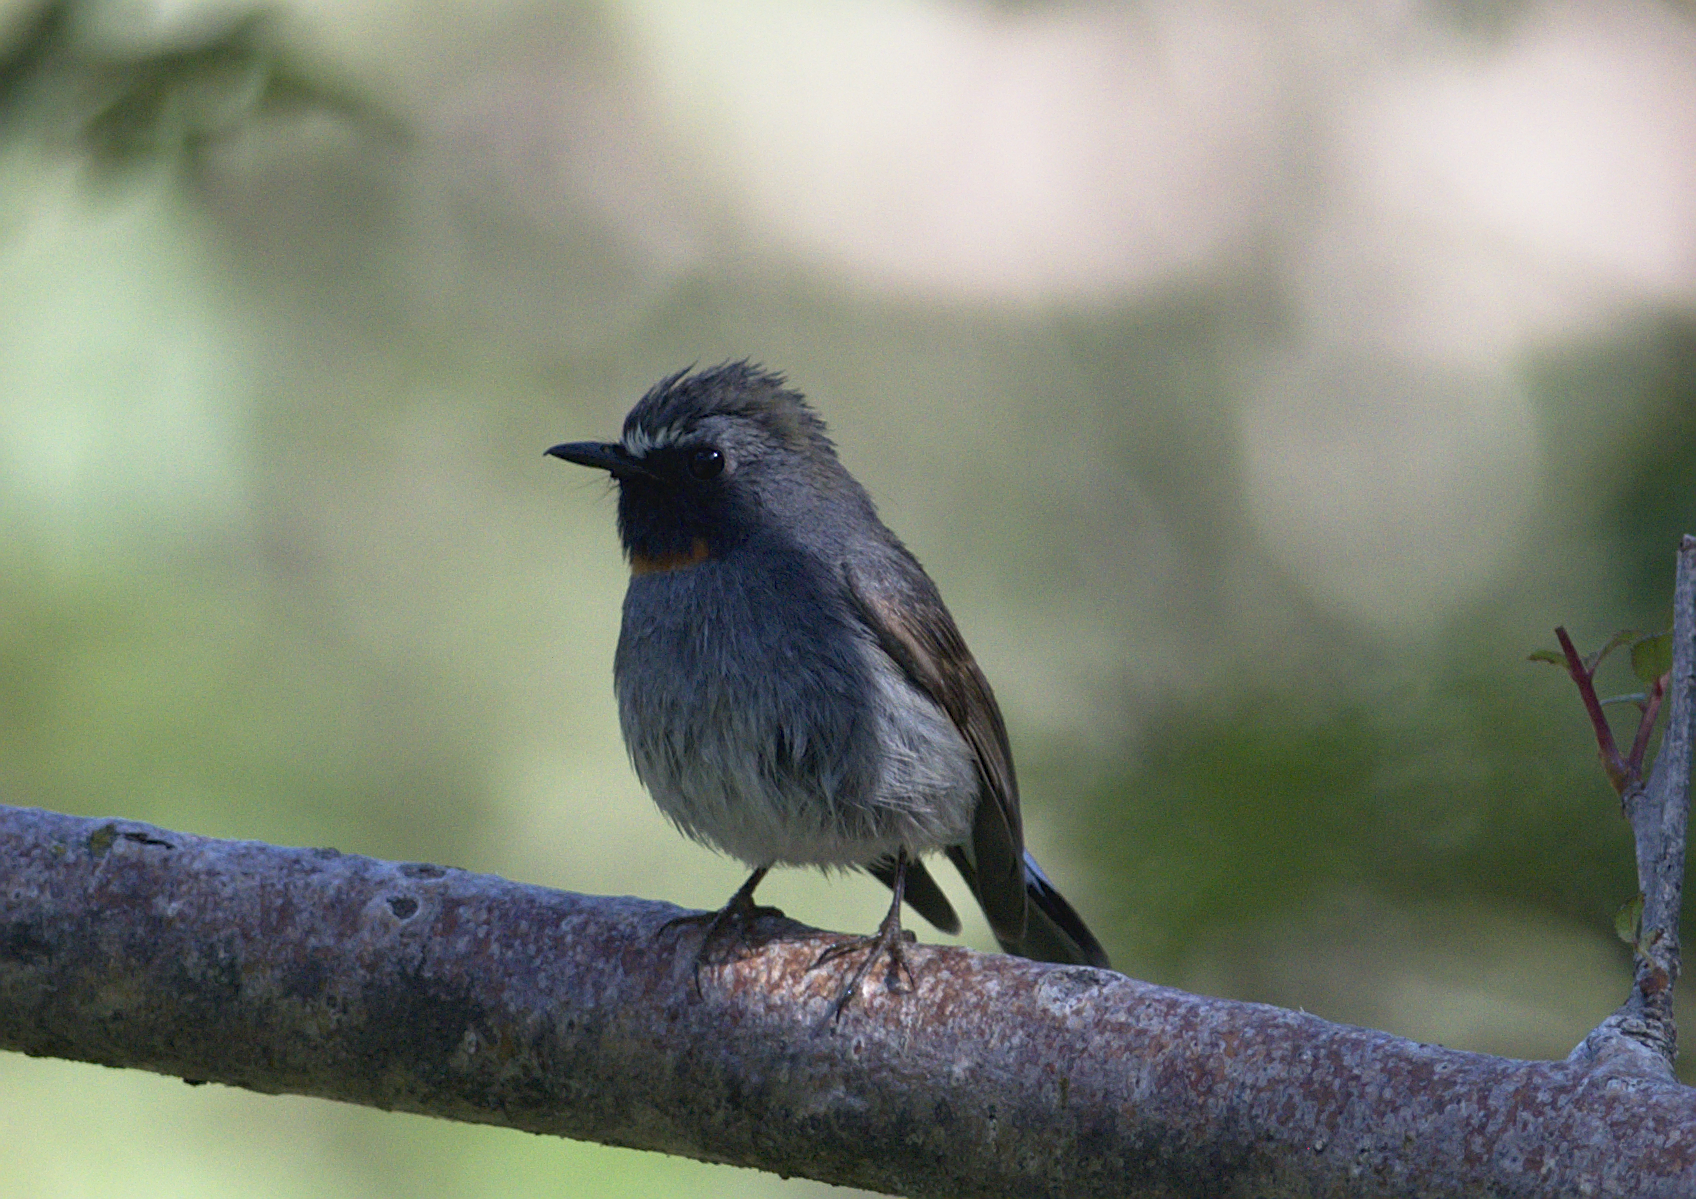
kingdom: Animalia
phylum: Chordata
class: Aves
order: Passeriformes
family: Muscicapidae
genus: Ficedula
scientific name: Ficedula strophiata
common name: Rufous-gorgeted flycatcher
